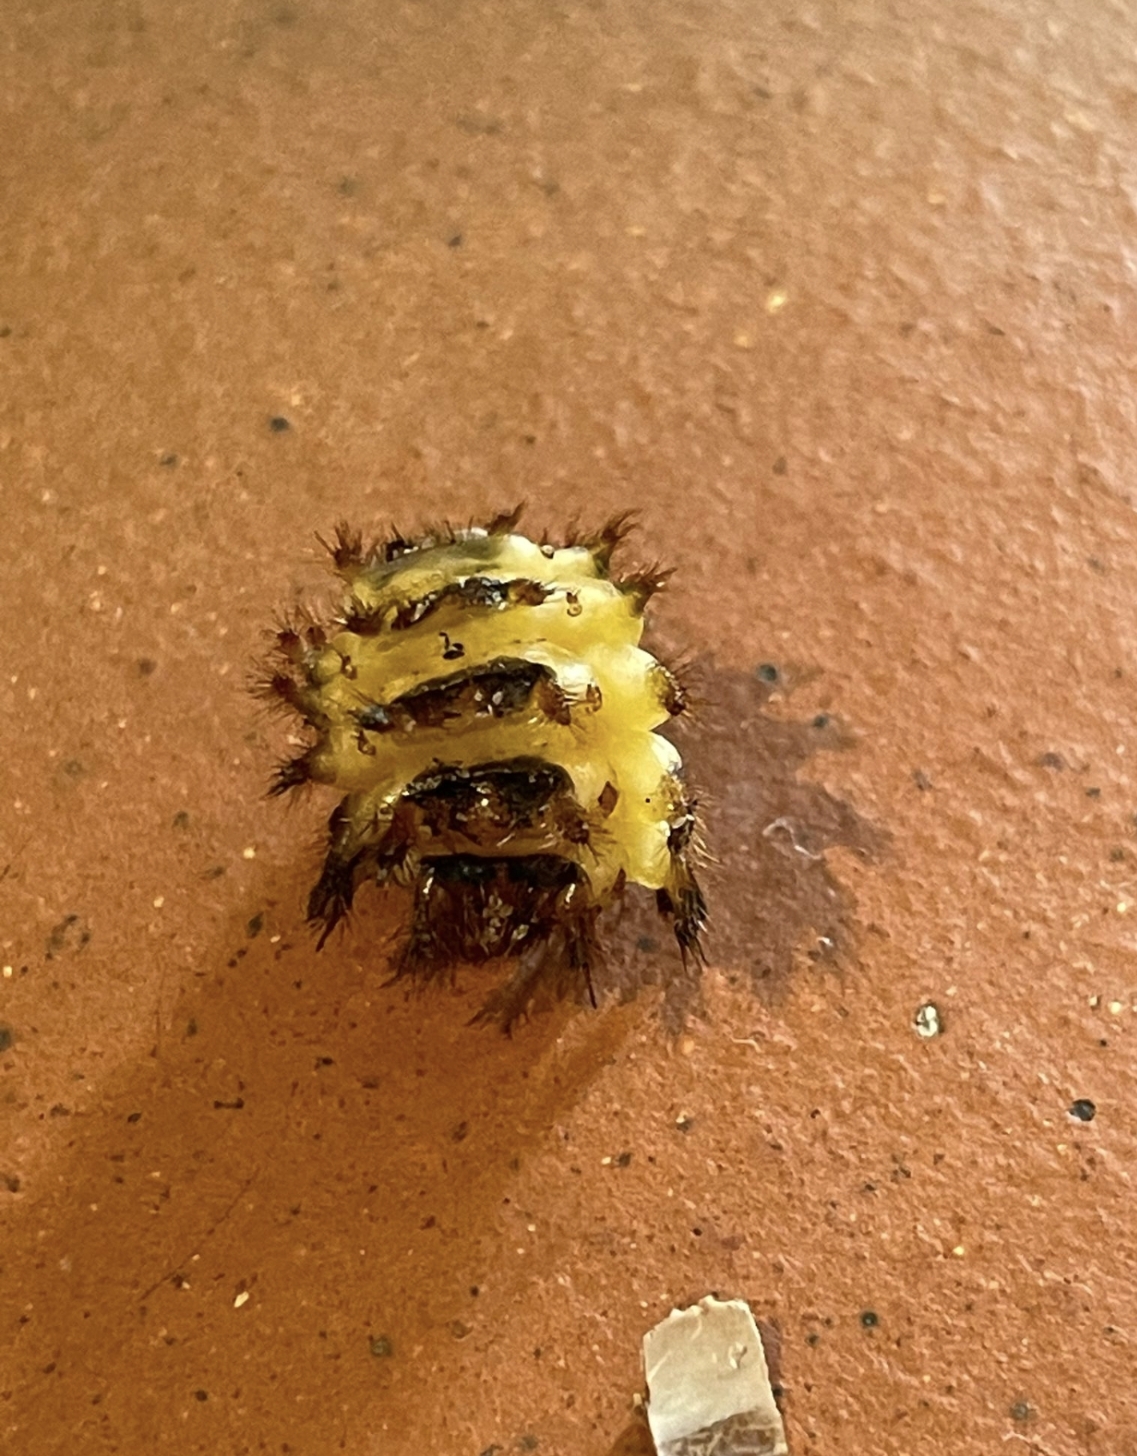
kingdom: Animalia
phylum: Arthropoda
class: Insecta
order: Coleoptera
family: Drilidae
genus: Drilus
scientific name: Drilus flavescens
